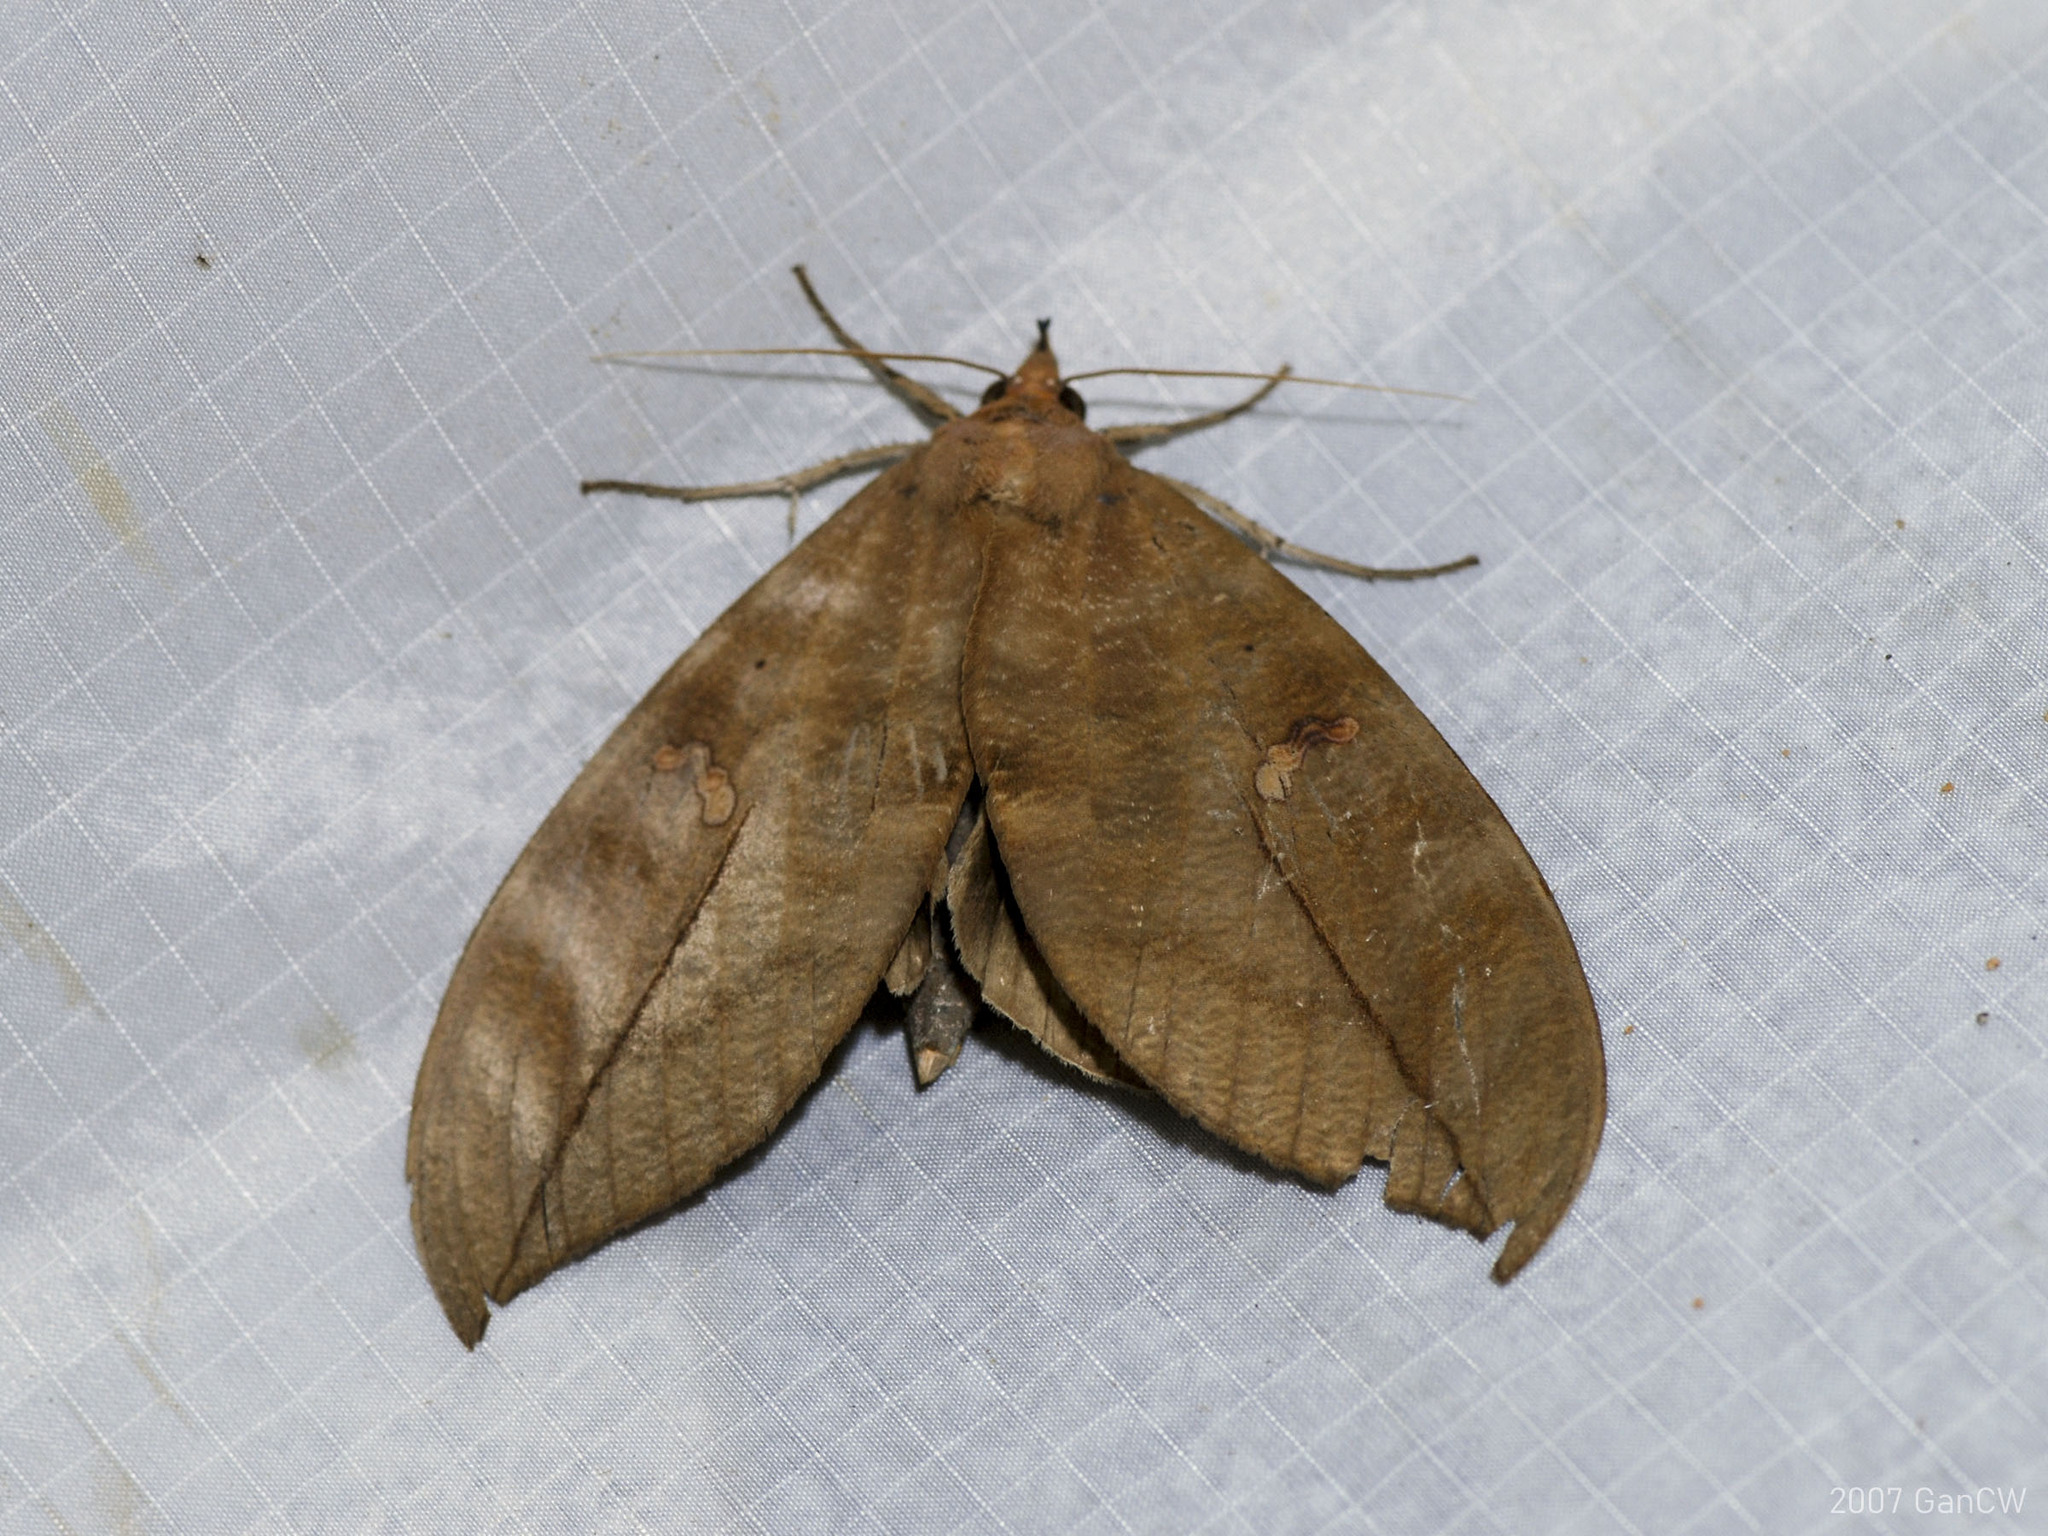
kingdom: Animalia
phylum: Arthropoda
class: Insecta
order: Lepidoptera
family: Erebidae
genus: Phyllodes
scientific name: Phyllodes eyndhovii
